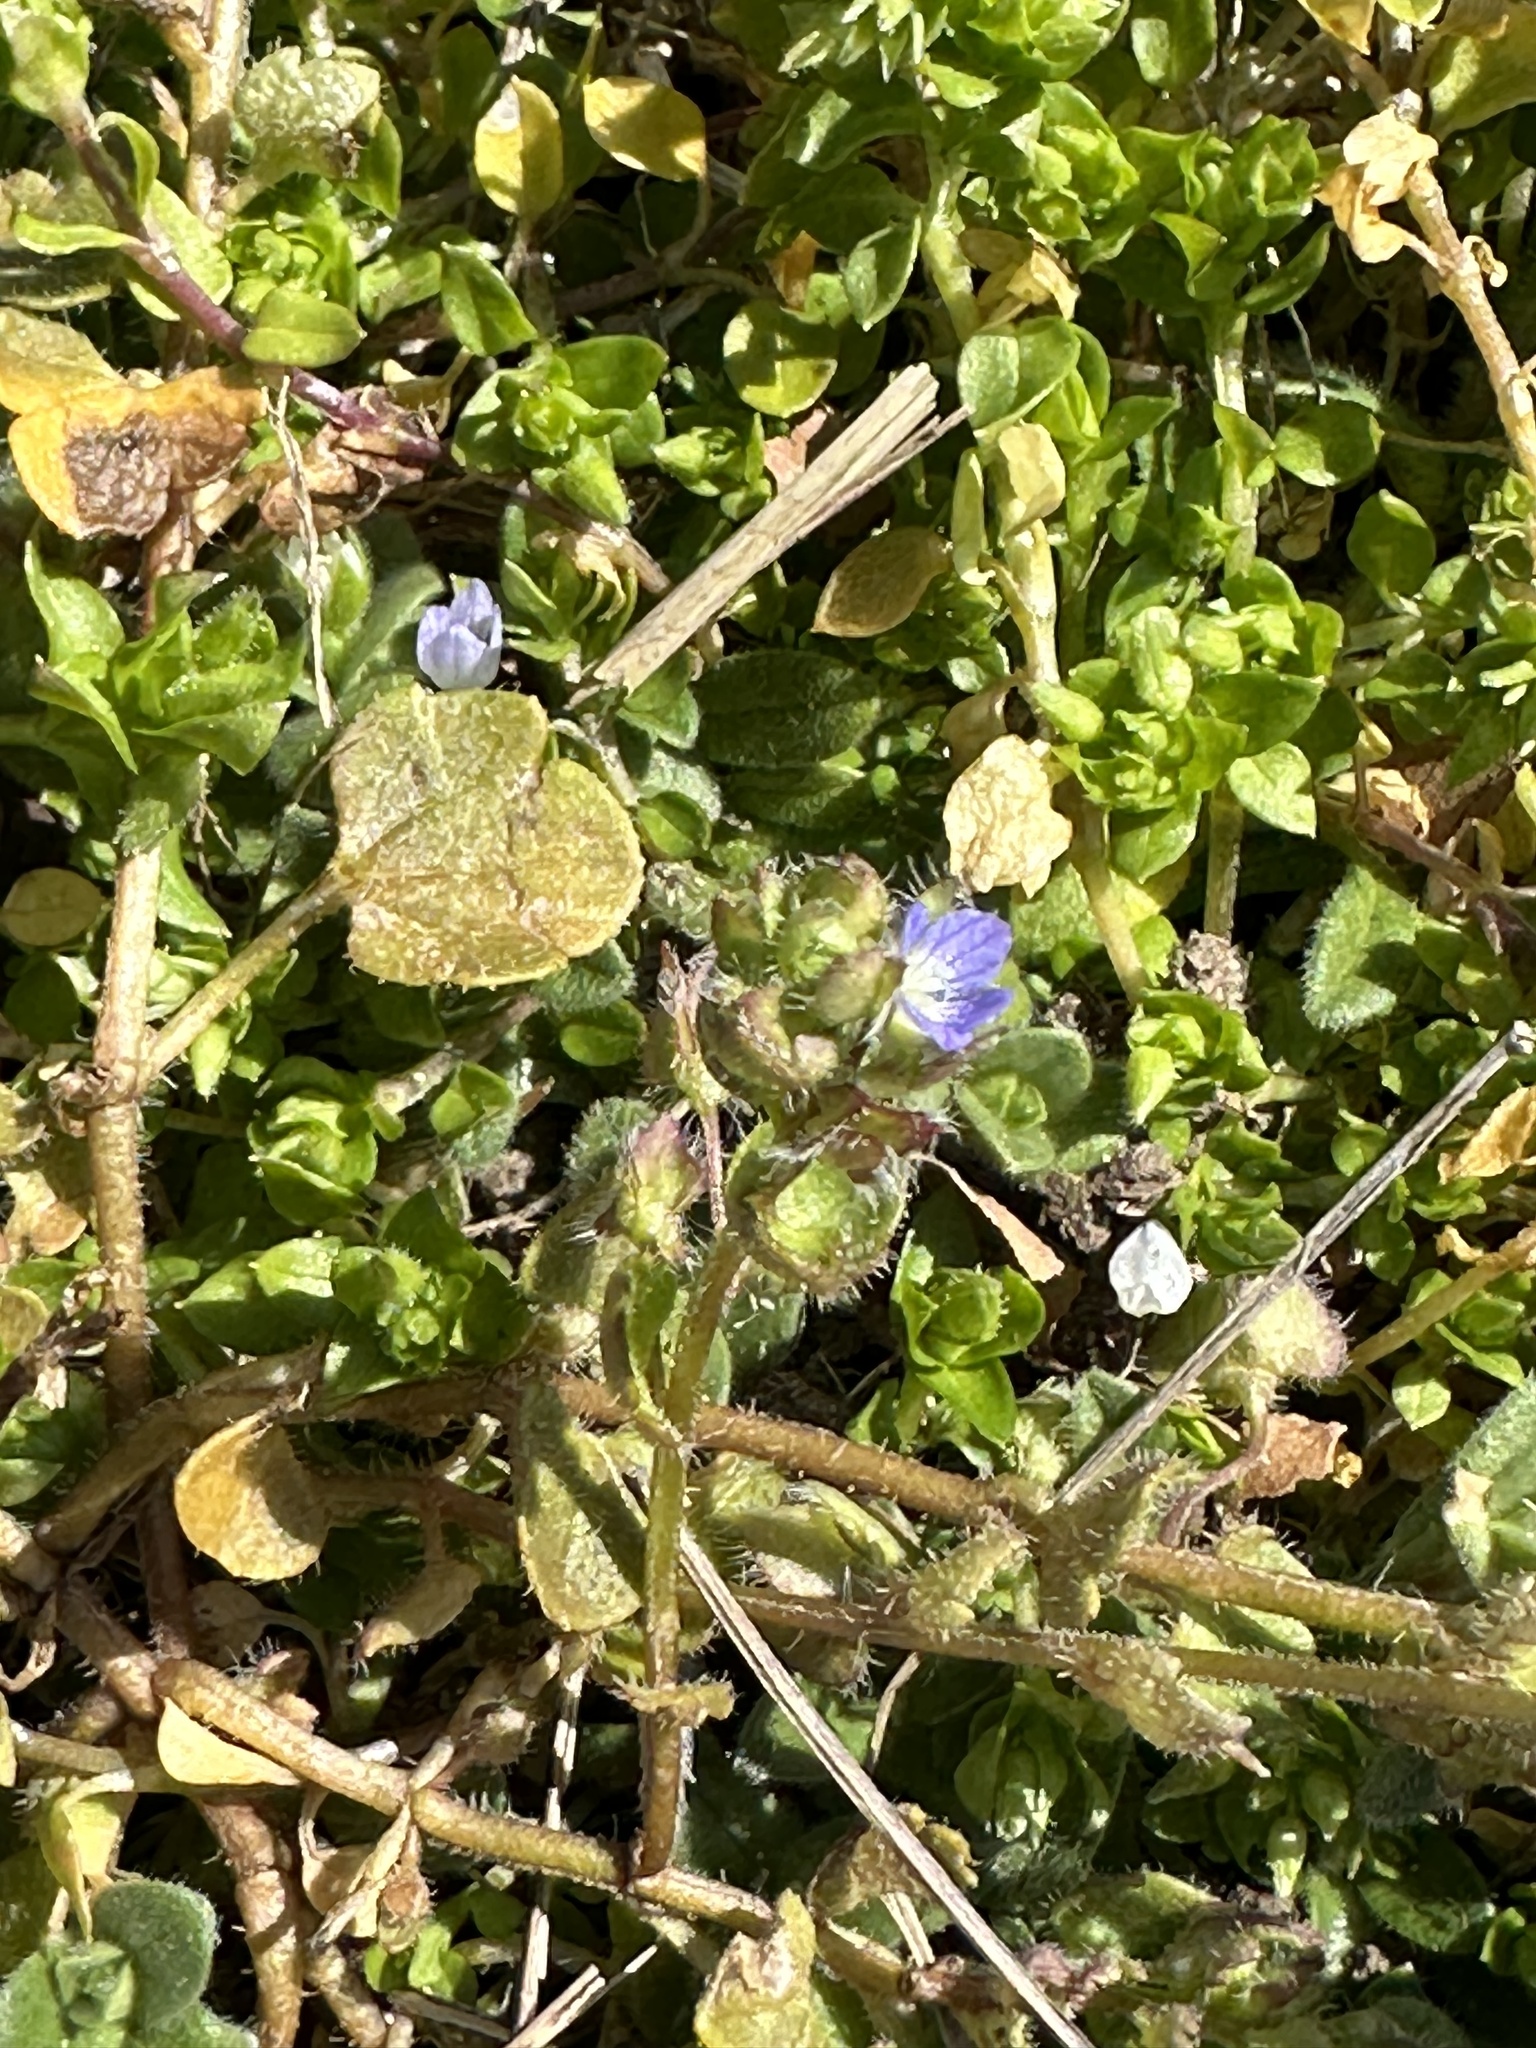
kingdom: Plantae
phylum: Tracheophyta
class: Magnoliopsida
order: Lamiales
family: Plantaginaceae
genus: Veronica
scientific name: Veronica hederifolia
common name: Ivy-leaved speedwell
